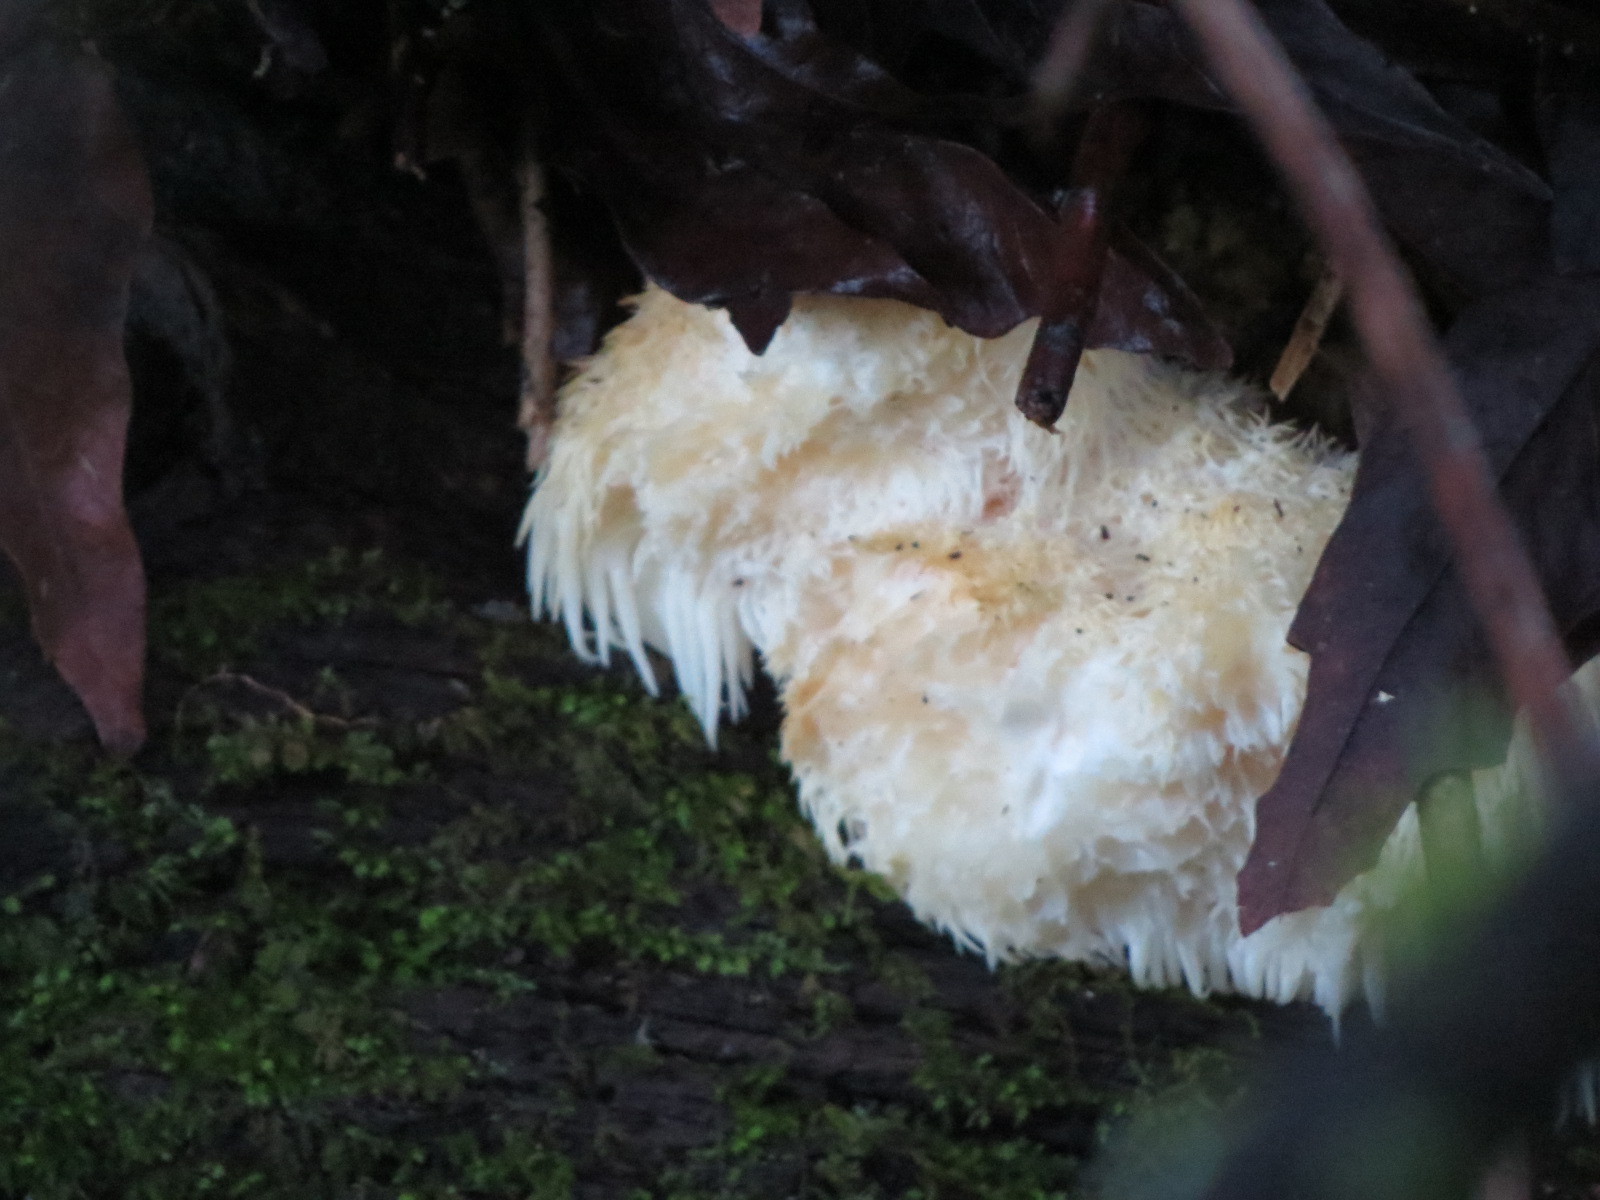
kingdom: Fungi
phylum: Basidiomycota
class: Agaricomycetes
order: Russulales
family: Hericiaceae
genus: Hericium
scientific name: Hericium erinaceus
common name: Bearded tooth
